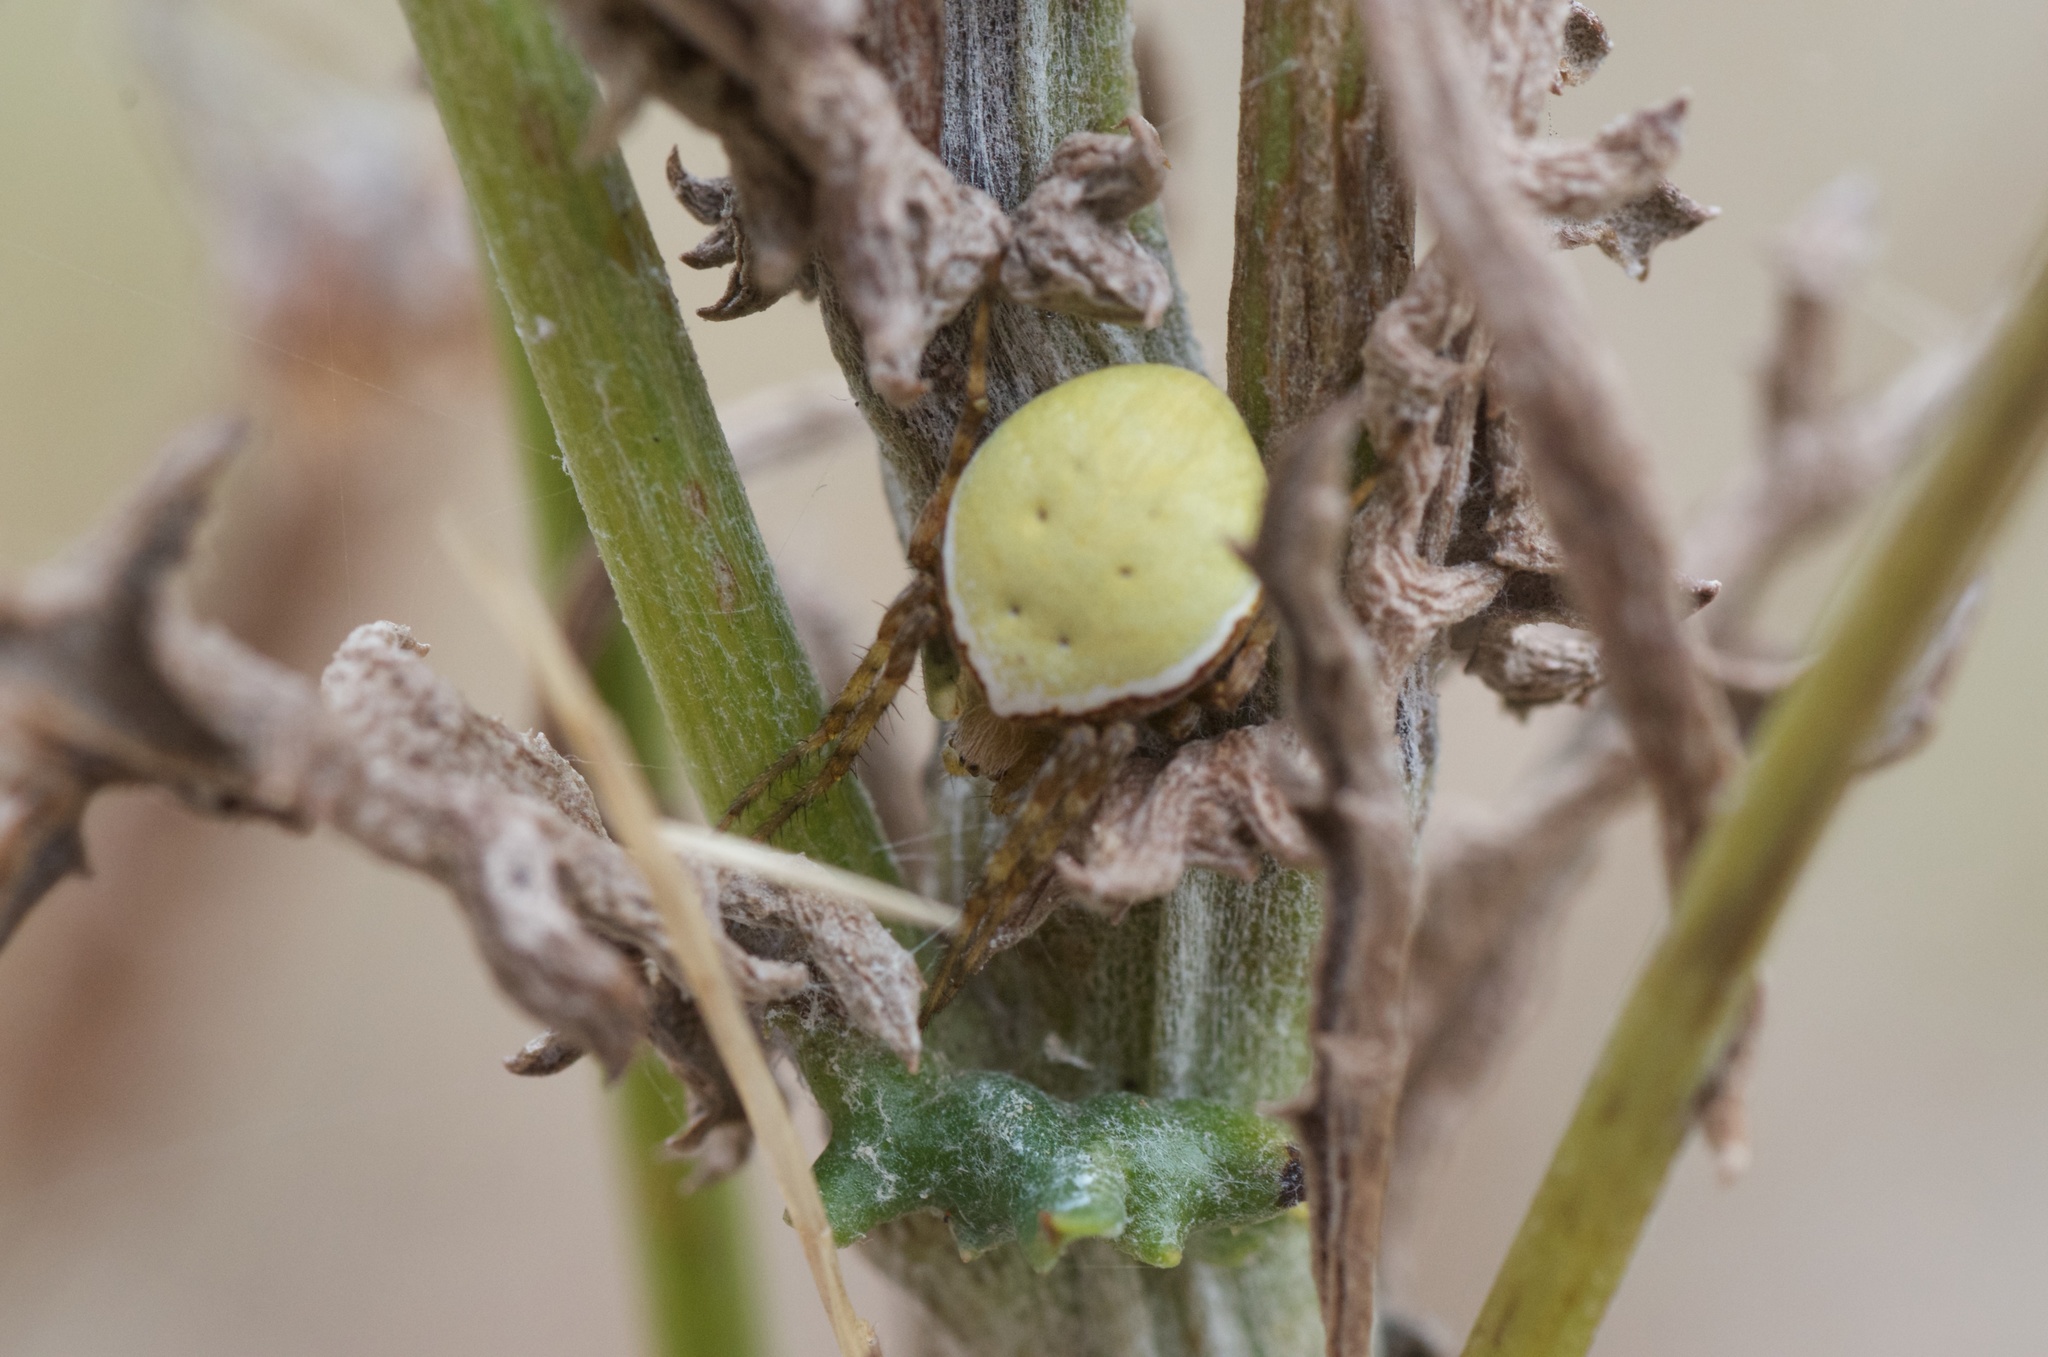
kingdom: Animalia
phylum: Arthropoda
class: Arachnida
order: Araneae
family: Araneidae
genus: Colaranea
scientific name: Colaranea viriditas
